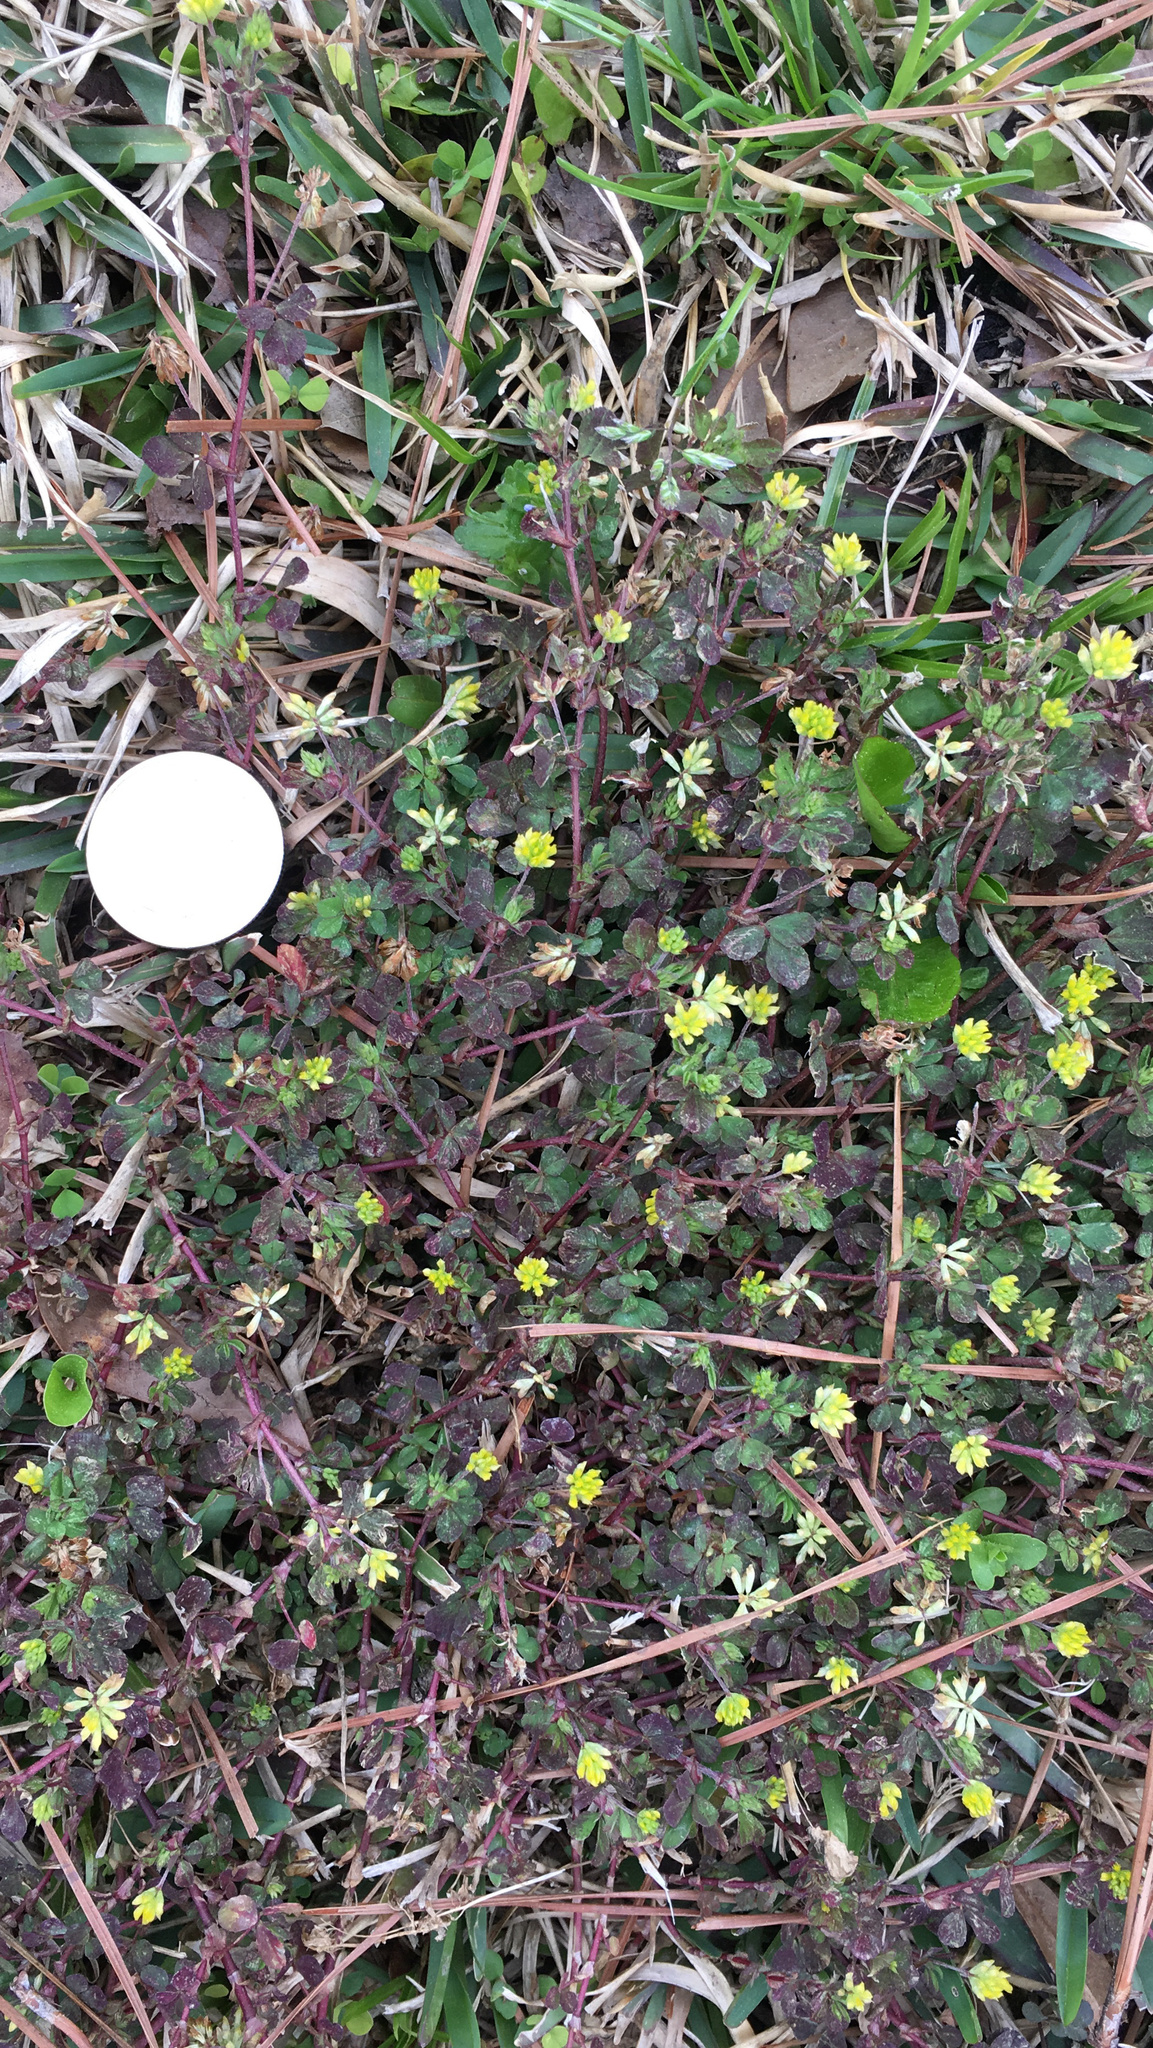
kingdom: Plantae
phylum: Tracheophyta
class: Magnoliopsida
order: Fabales
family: Fabaceae
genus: Trifolium
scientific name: Trifolium dubium
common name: Suckling clover
